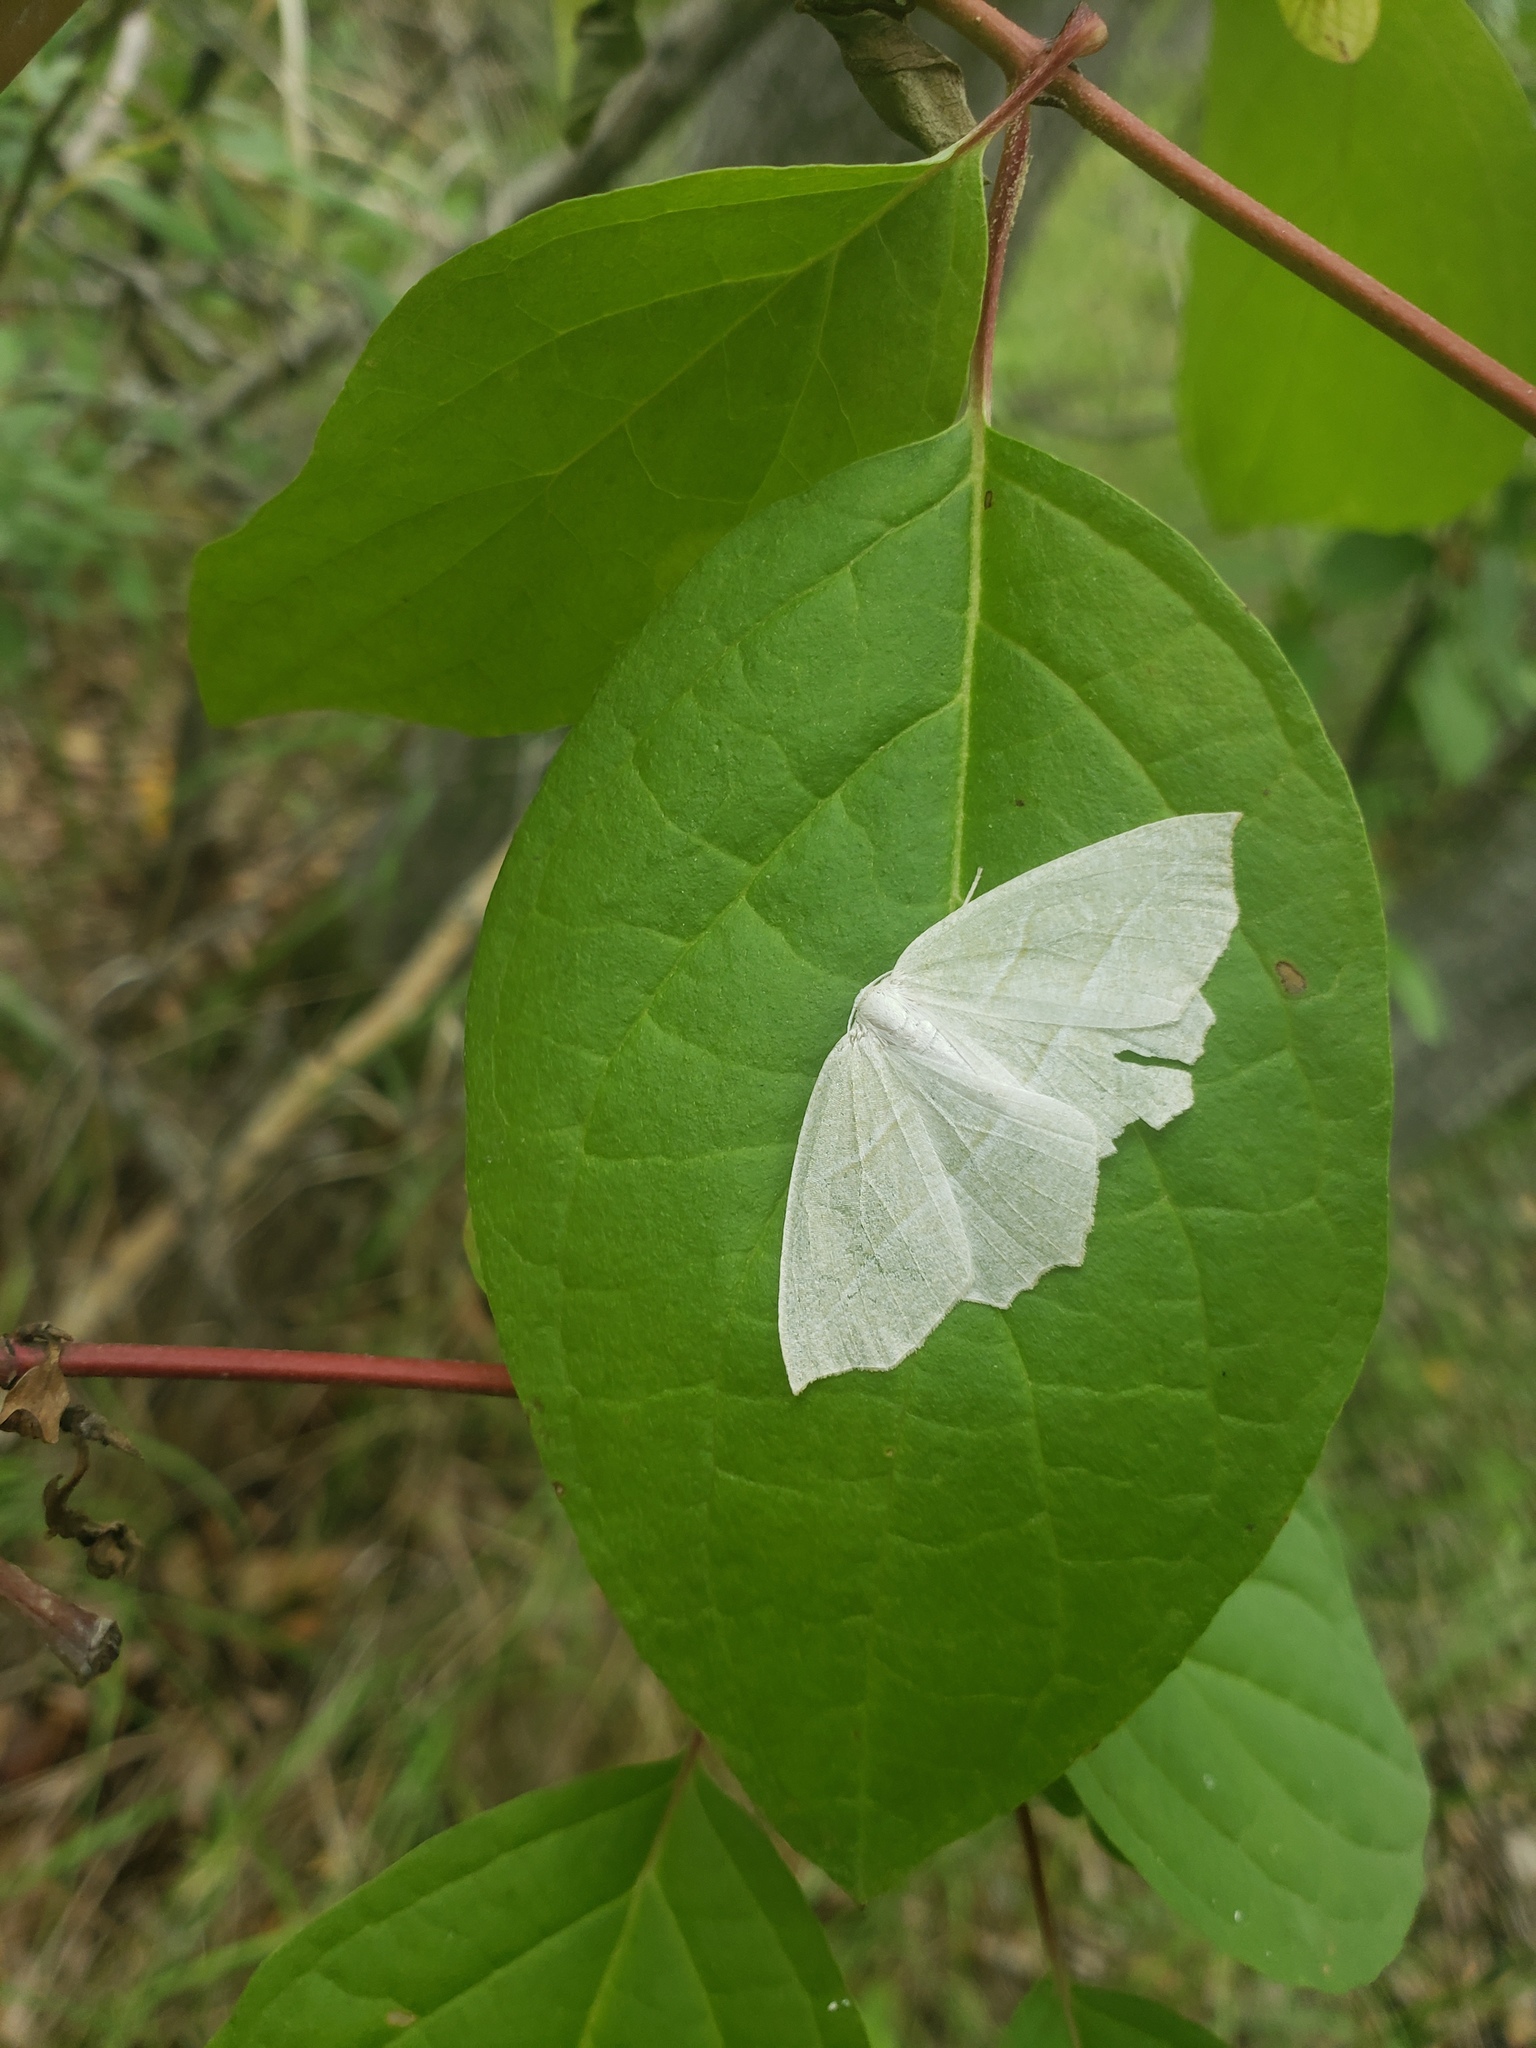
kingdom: Animalia
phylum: Arthropoda
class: Insecta
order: Lepidoptera
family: Geometridae
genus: Campaea
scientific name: Campaea perlata
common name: Fringed looper
